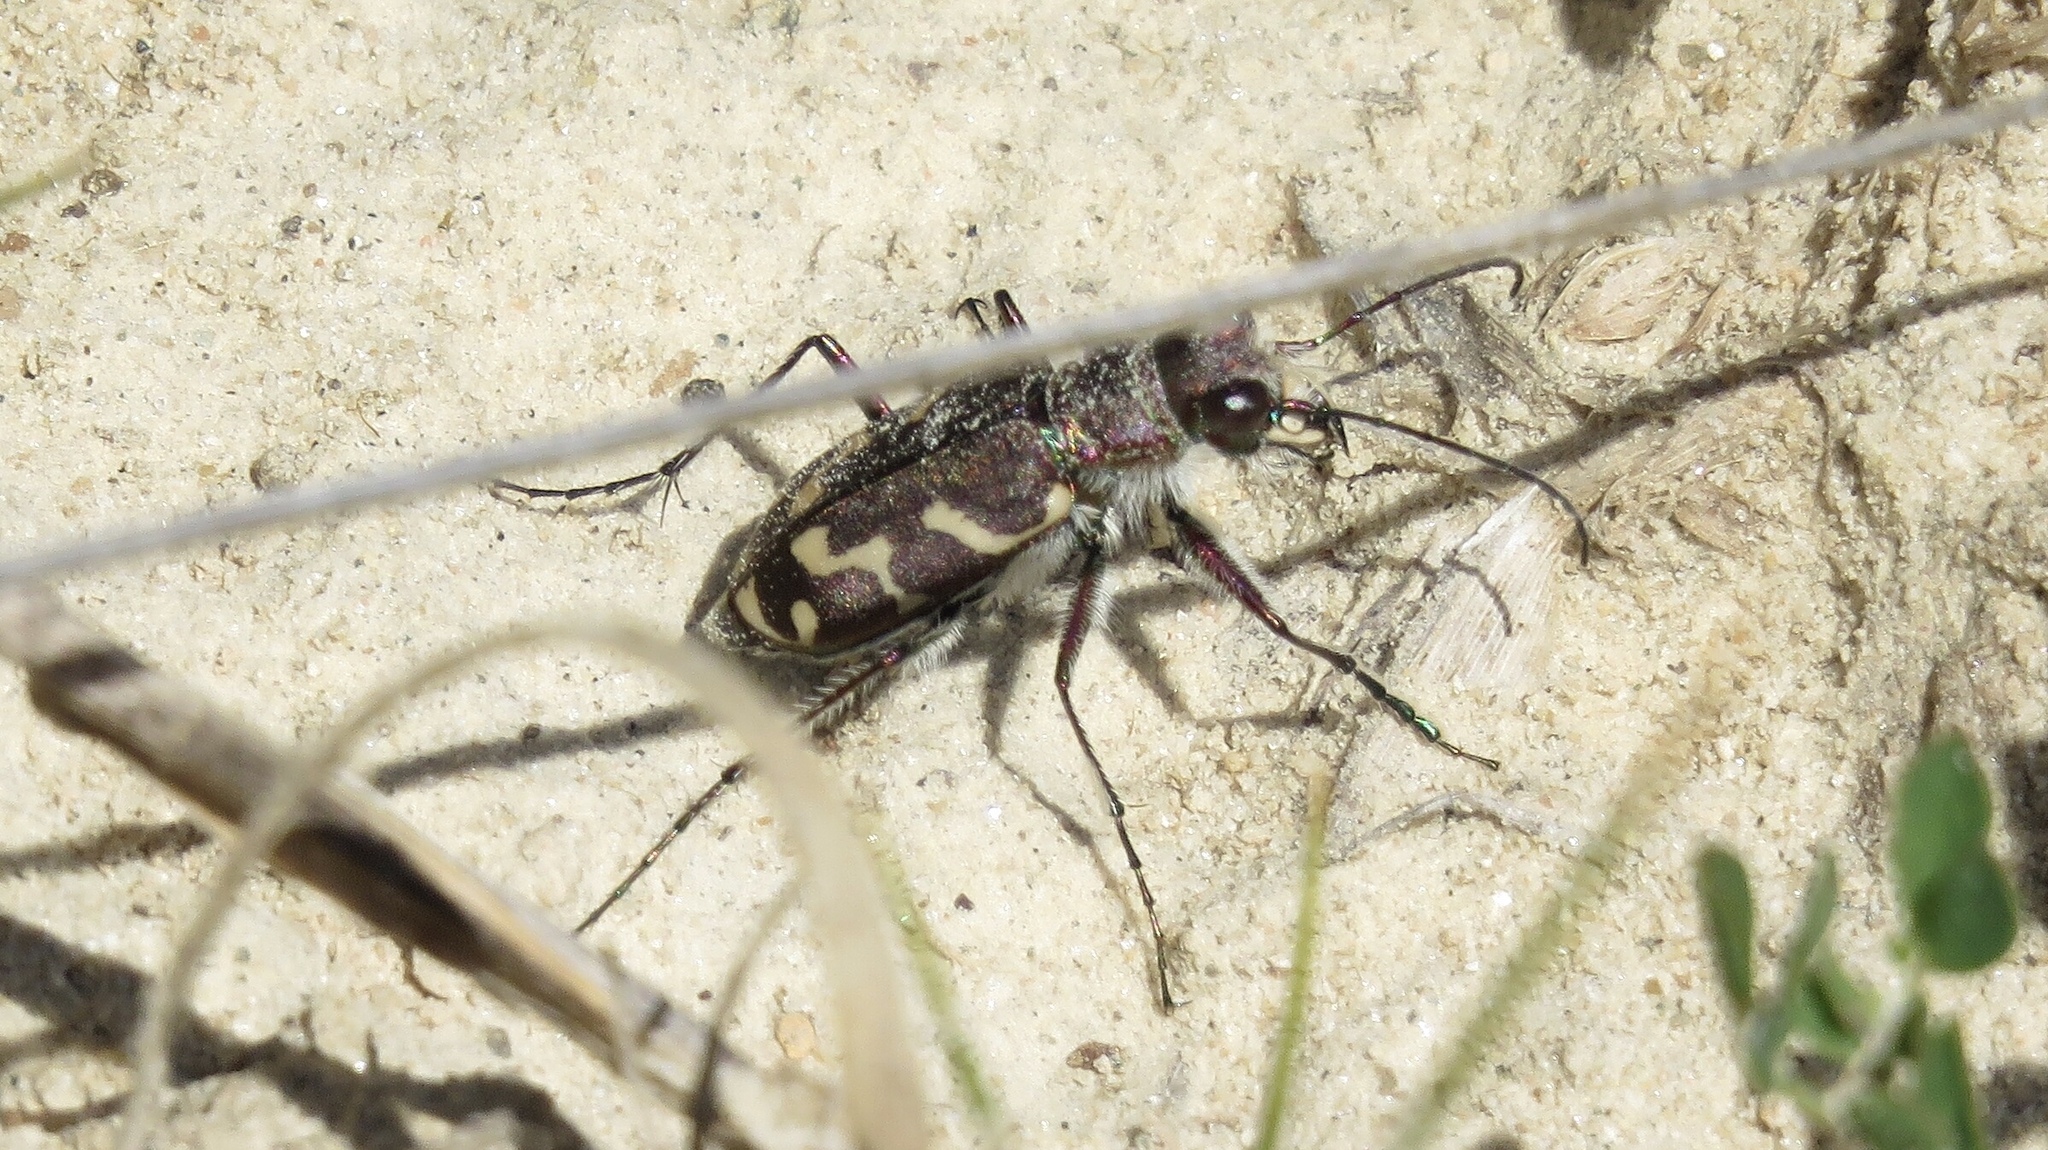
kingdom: Animalia
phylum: Arthropoda
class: Insecta
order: Coleoptera
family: Carabidae
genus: Cicindela
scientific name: Cicindela tranquebarica
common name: Oblique-lined tiger beetle
